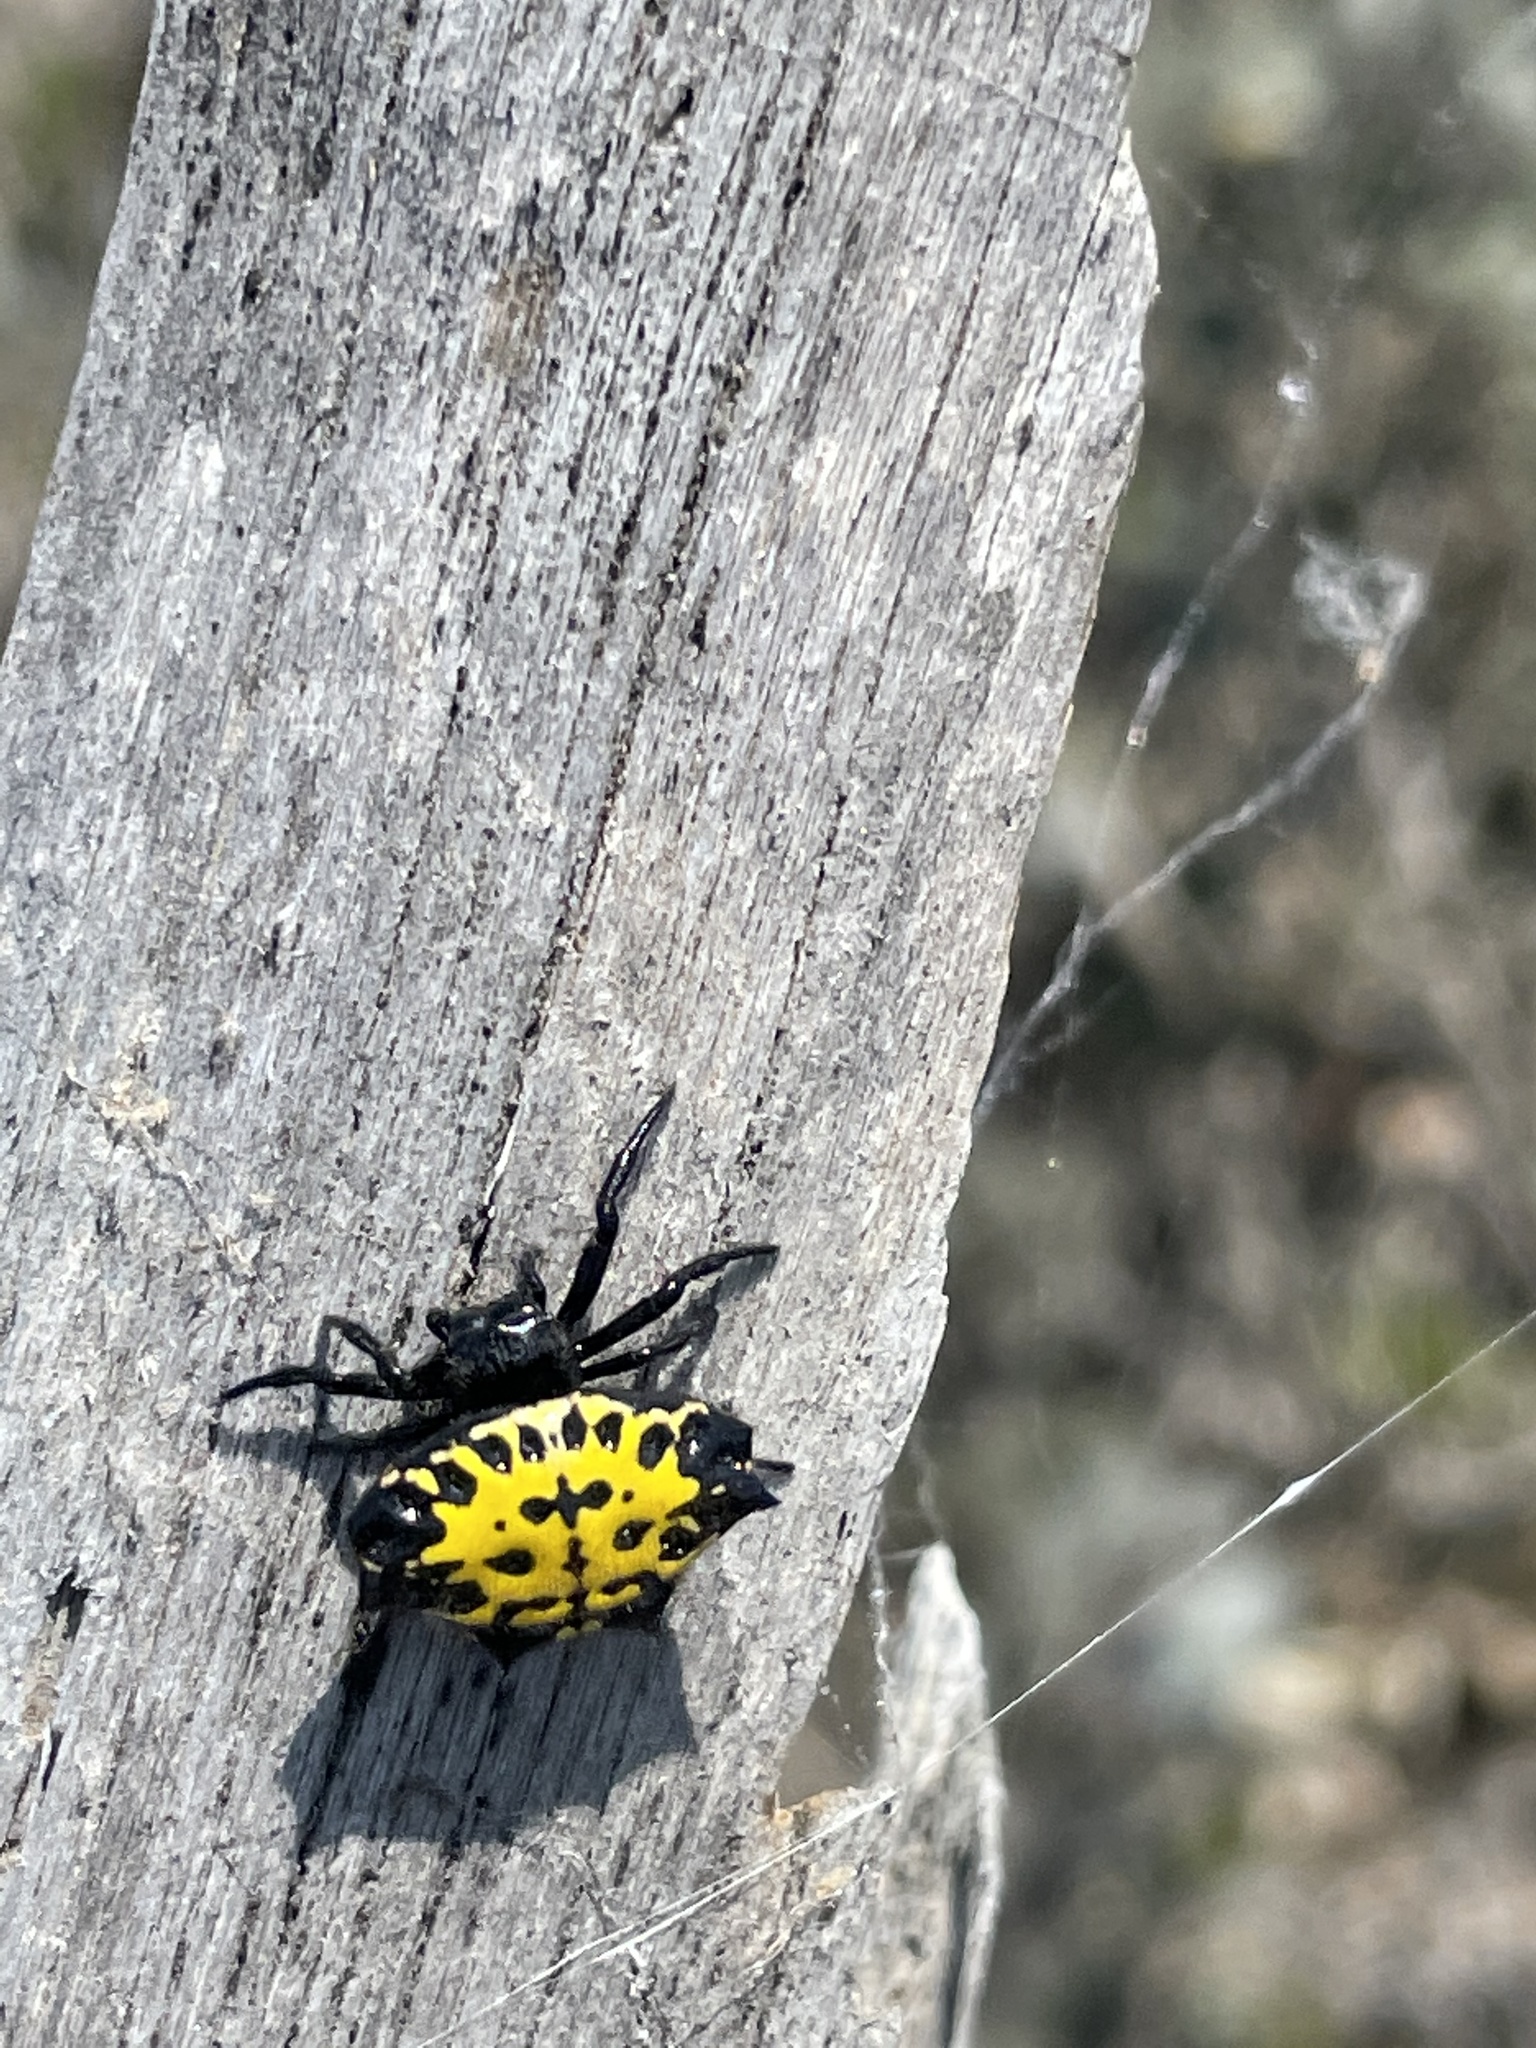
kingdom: Animalia
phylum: Arthropoda
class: Arachnida
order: Araneae
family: Araneidae
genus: Gasteracantha
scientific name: Gasteracantha cancriformis
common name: Orb weavers
